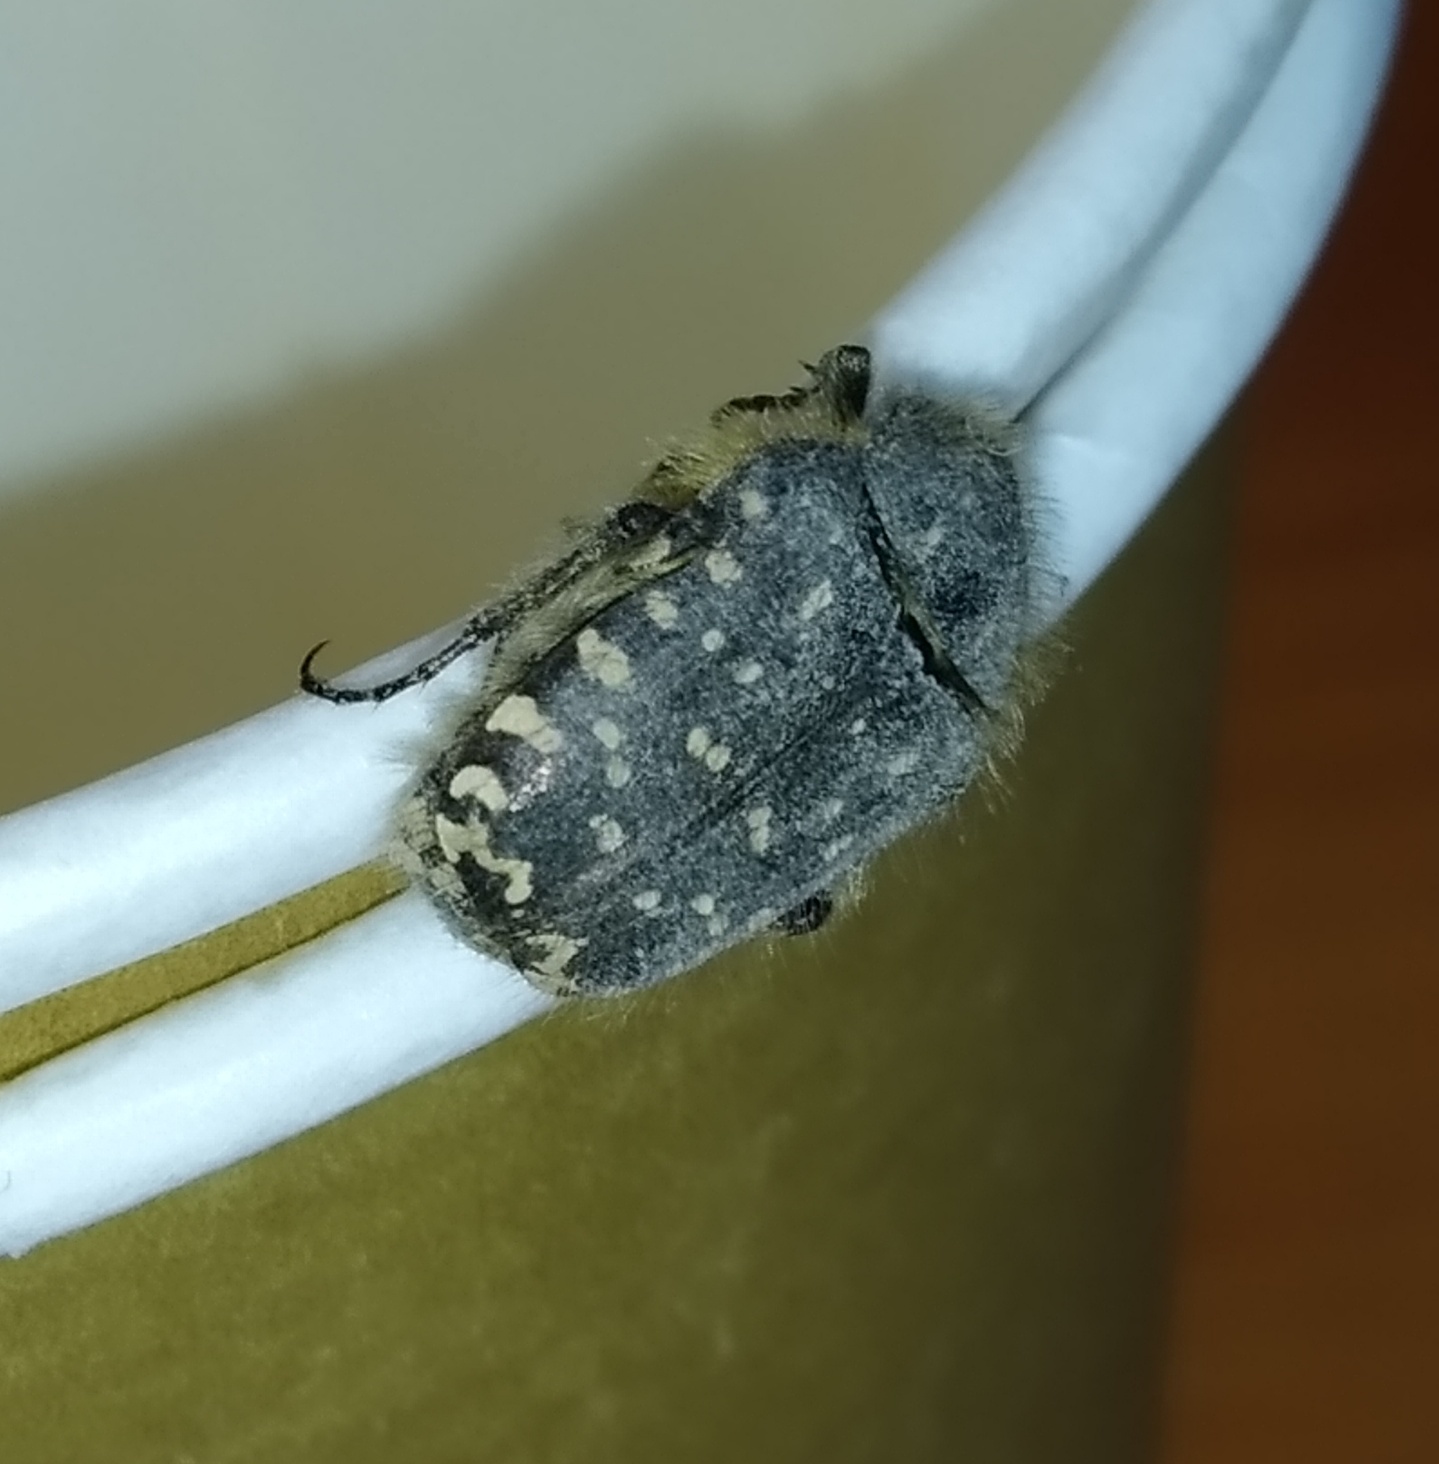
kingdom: Animalia
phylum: Arthropoda
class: Insecta
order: Coleoptera
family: Scarabaeidae
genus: Oxythyrea
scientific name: Oxythyrea funesta
